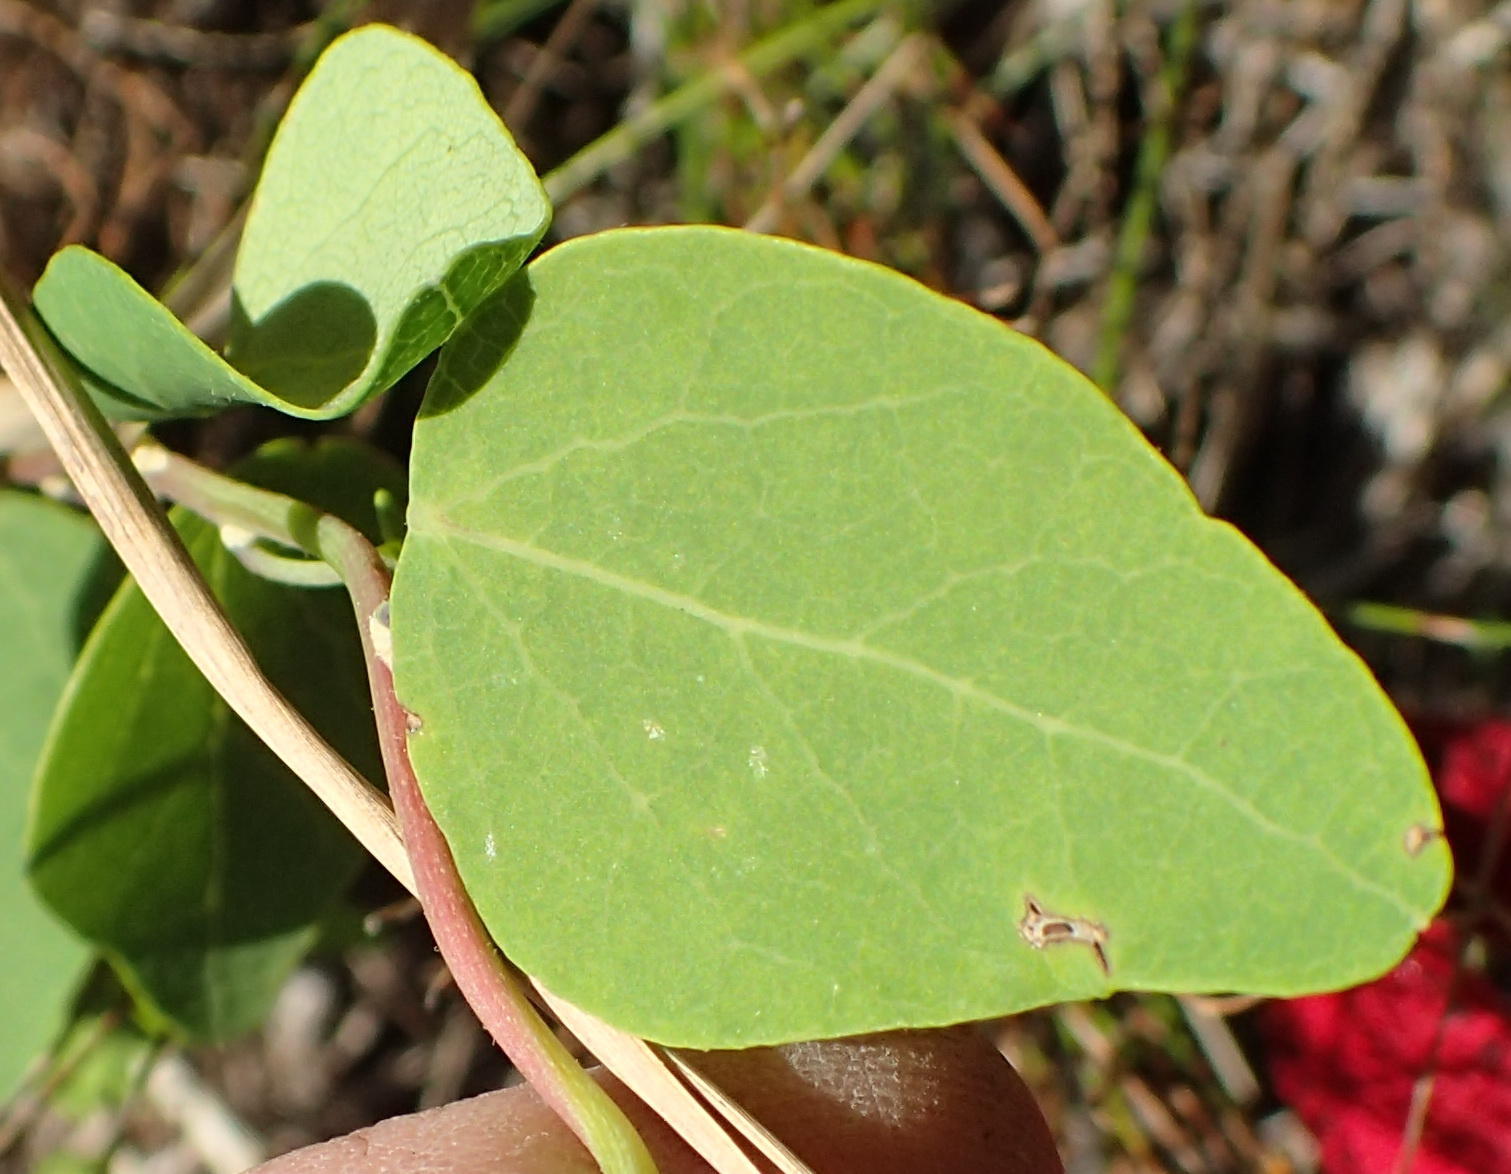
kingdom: Plantae
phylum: Tracheophyta
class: Magnoliopsida
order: Ranunculales
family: Menispermaceae
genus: Cissampelos
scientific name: Cissampelos capensis
